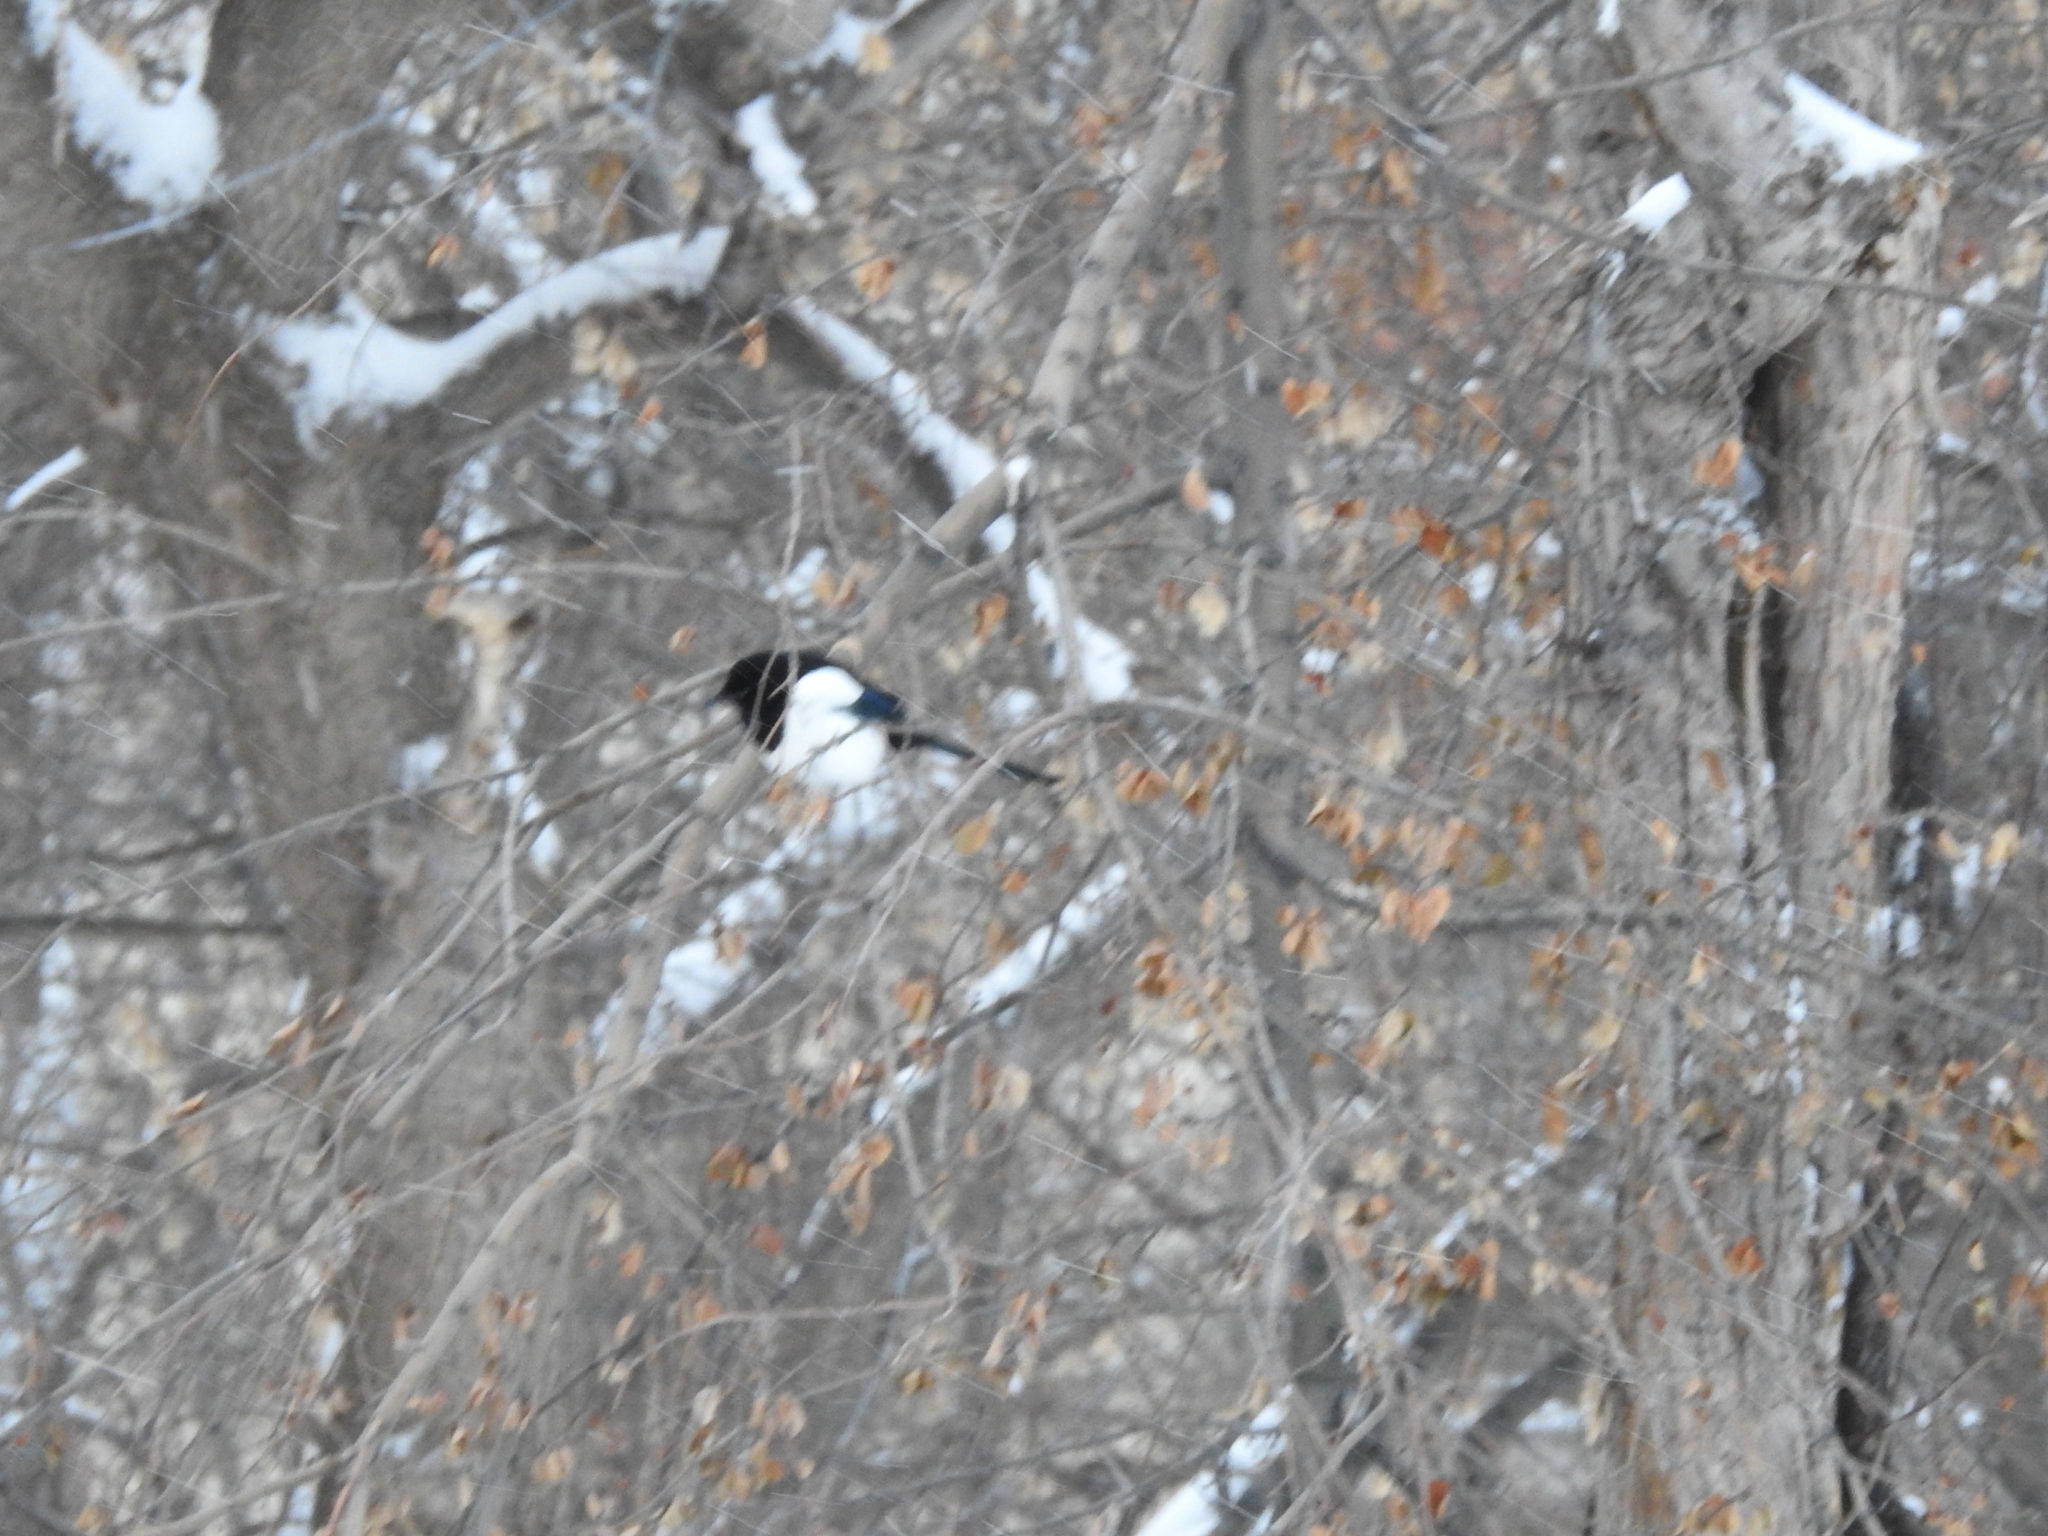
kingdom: Animalia
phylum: Chordata
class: Aves
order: Passeriformes
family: Corvidae
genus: Pica
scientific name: Pica pica
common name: Eurasian magpie
